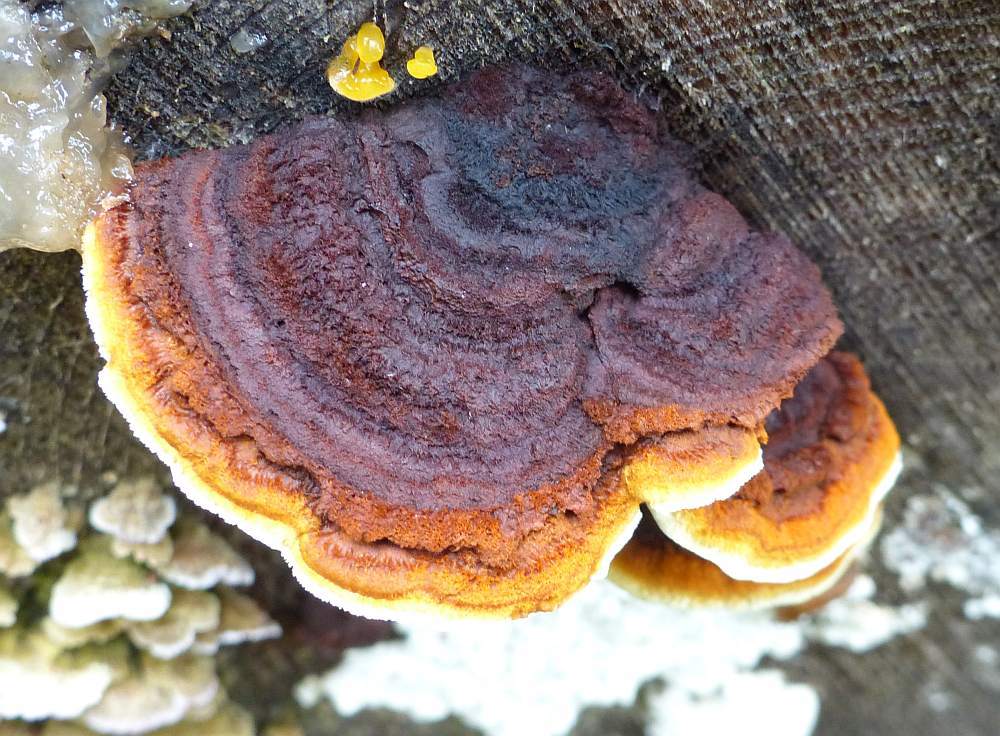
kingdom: Fungi
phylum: Basidiomycota
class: Agaricomycetes
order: Gloeophyllales
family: Gloeophyllaceae
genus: Gloeophyllum
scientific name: Gloeophyllum sepiarium
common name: Conifer mazegill
